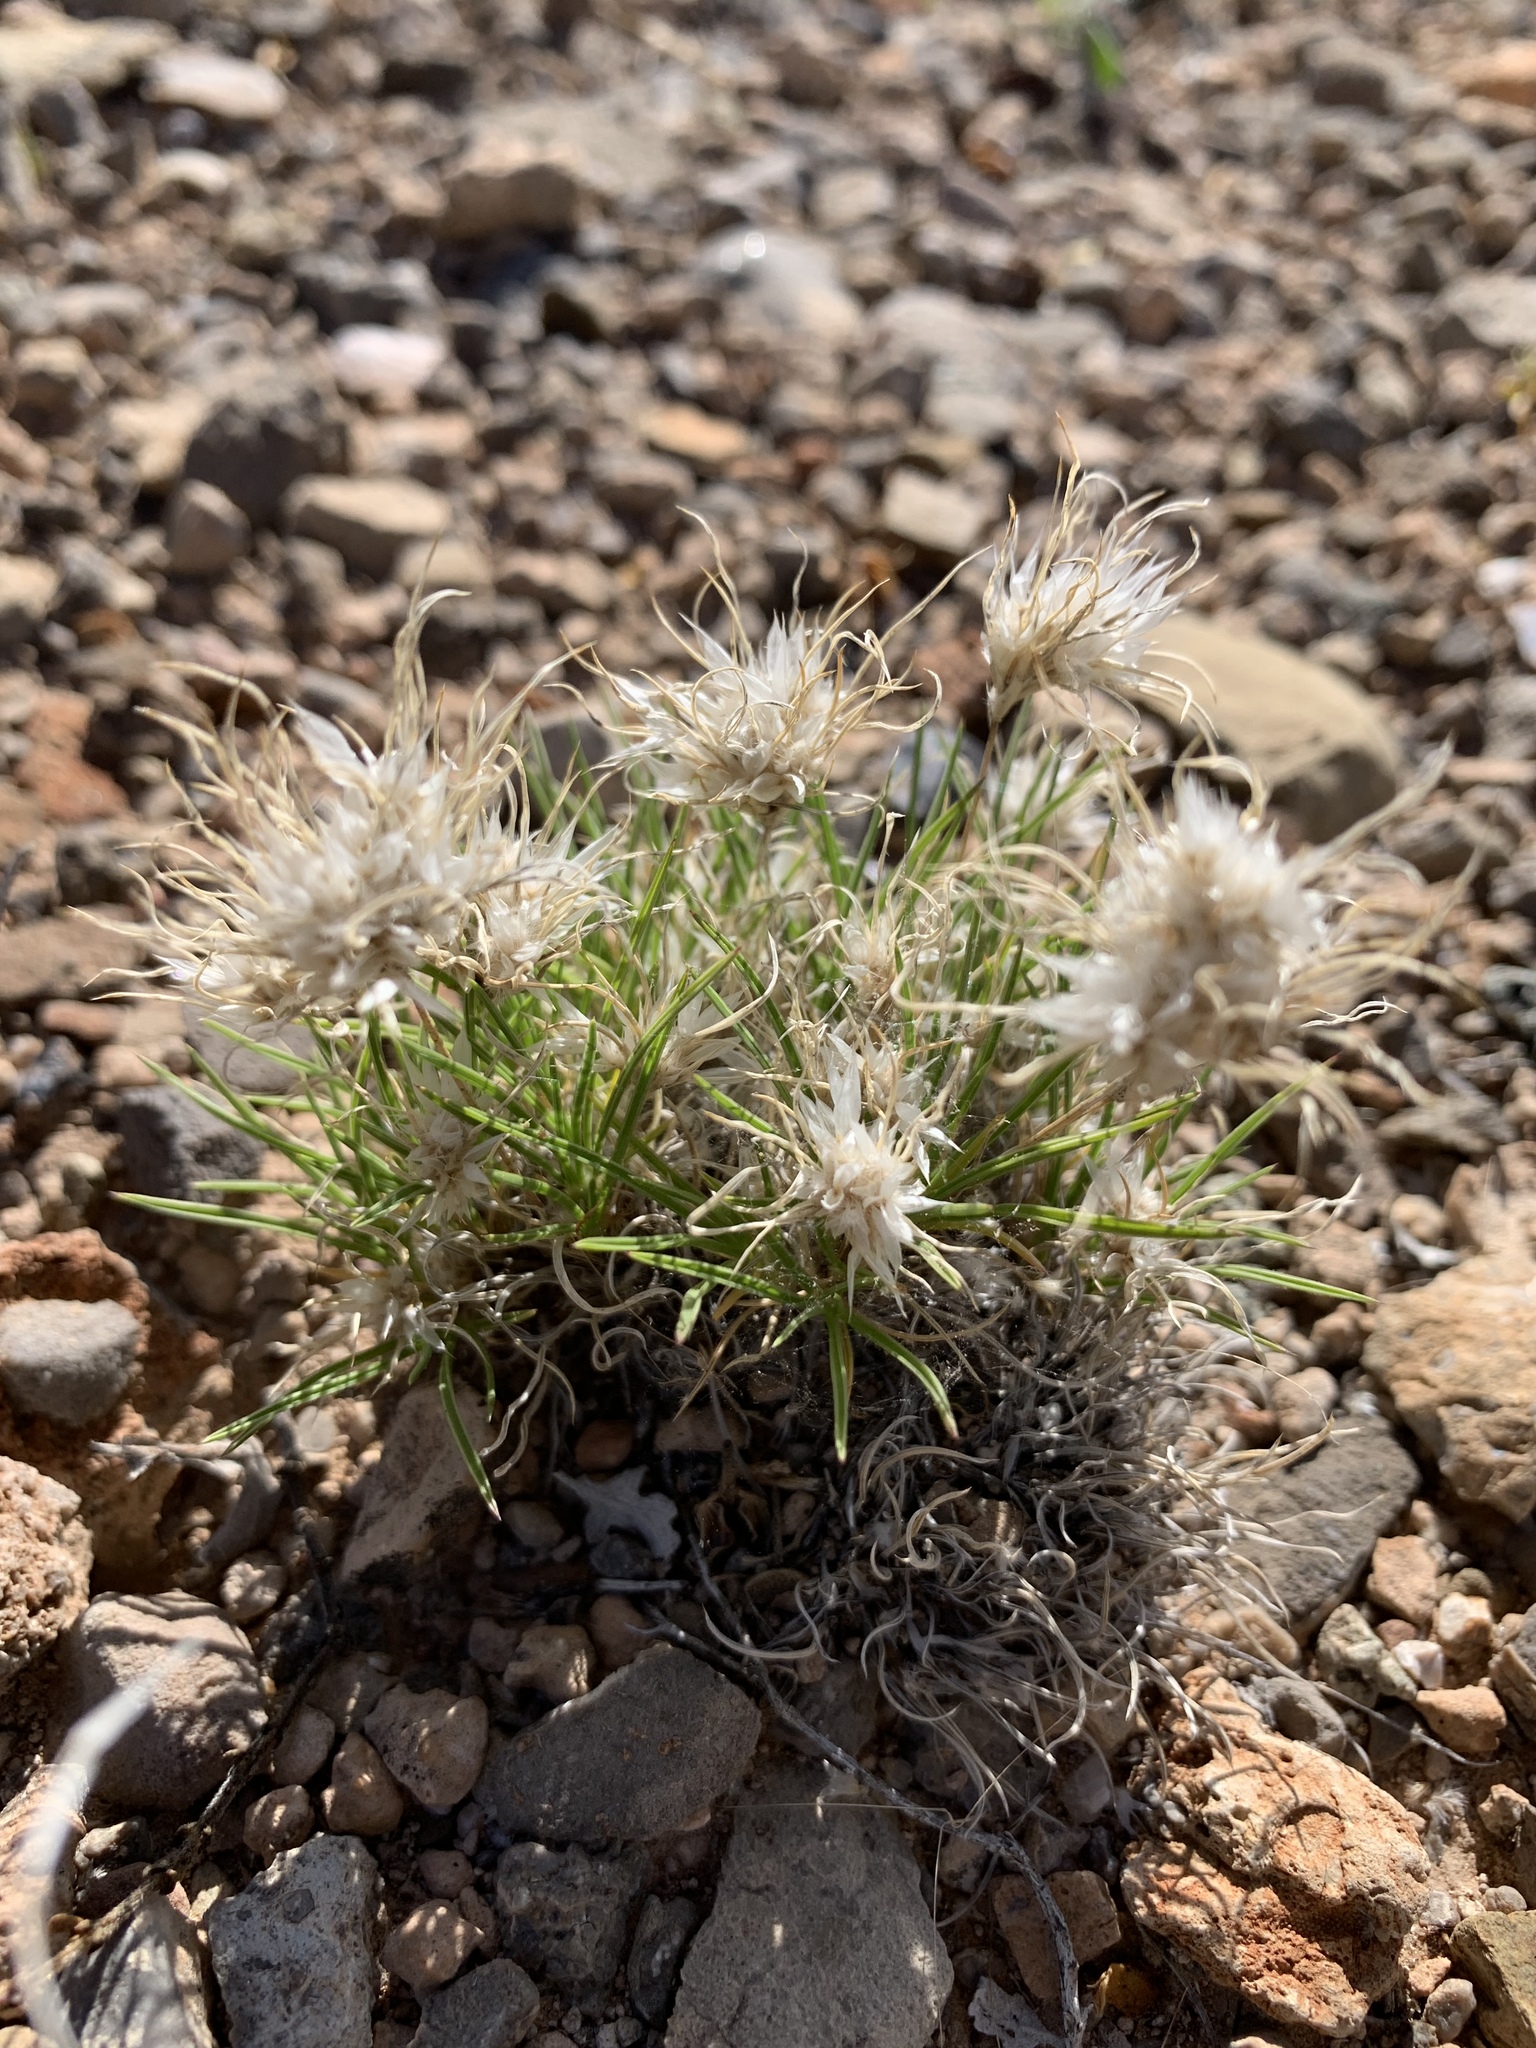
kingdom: Plantae
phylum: Tracheophyta
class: Liliopsida
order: Poales
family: Poaceae
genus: Dasyochloa
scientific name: Dasyochloa pulchella
